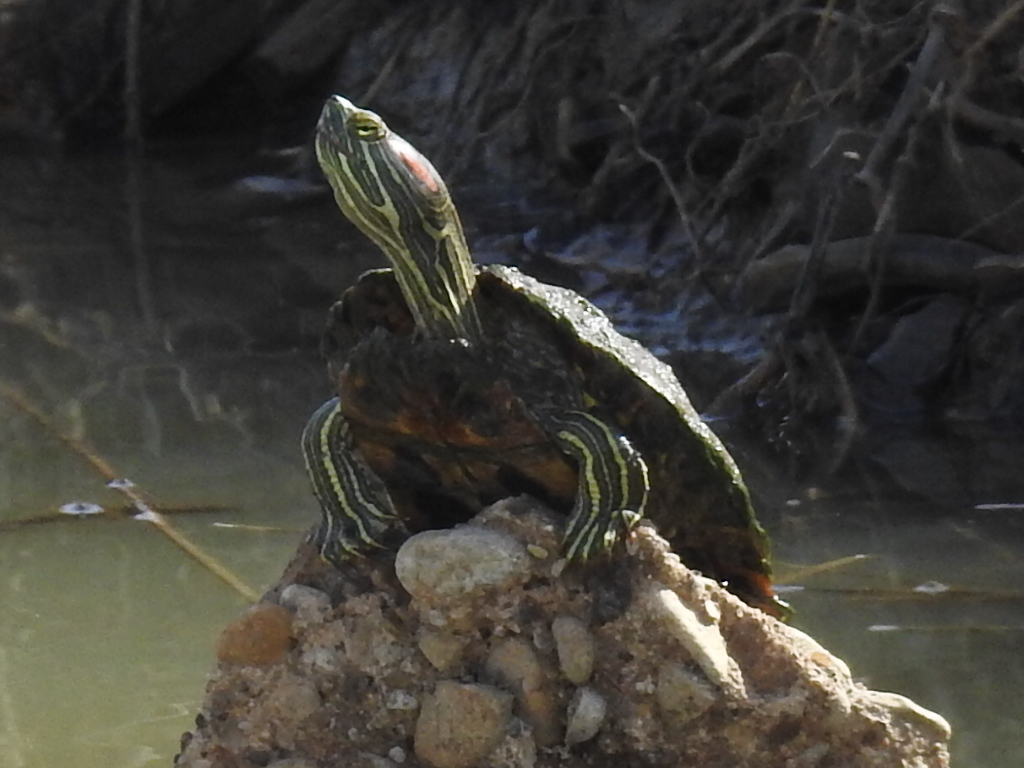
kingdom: Animalia
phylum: Chordata
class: Testudines
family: Emydidae
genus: Trachemys
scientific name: Trachemys scripta
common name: Slider
